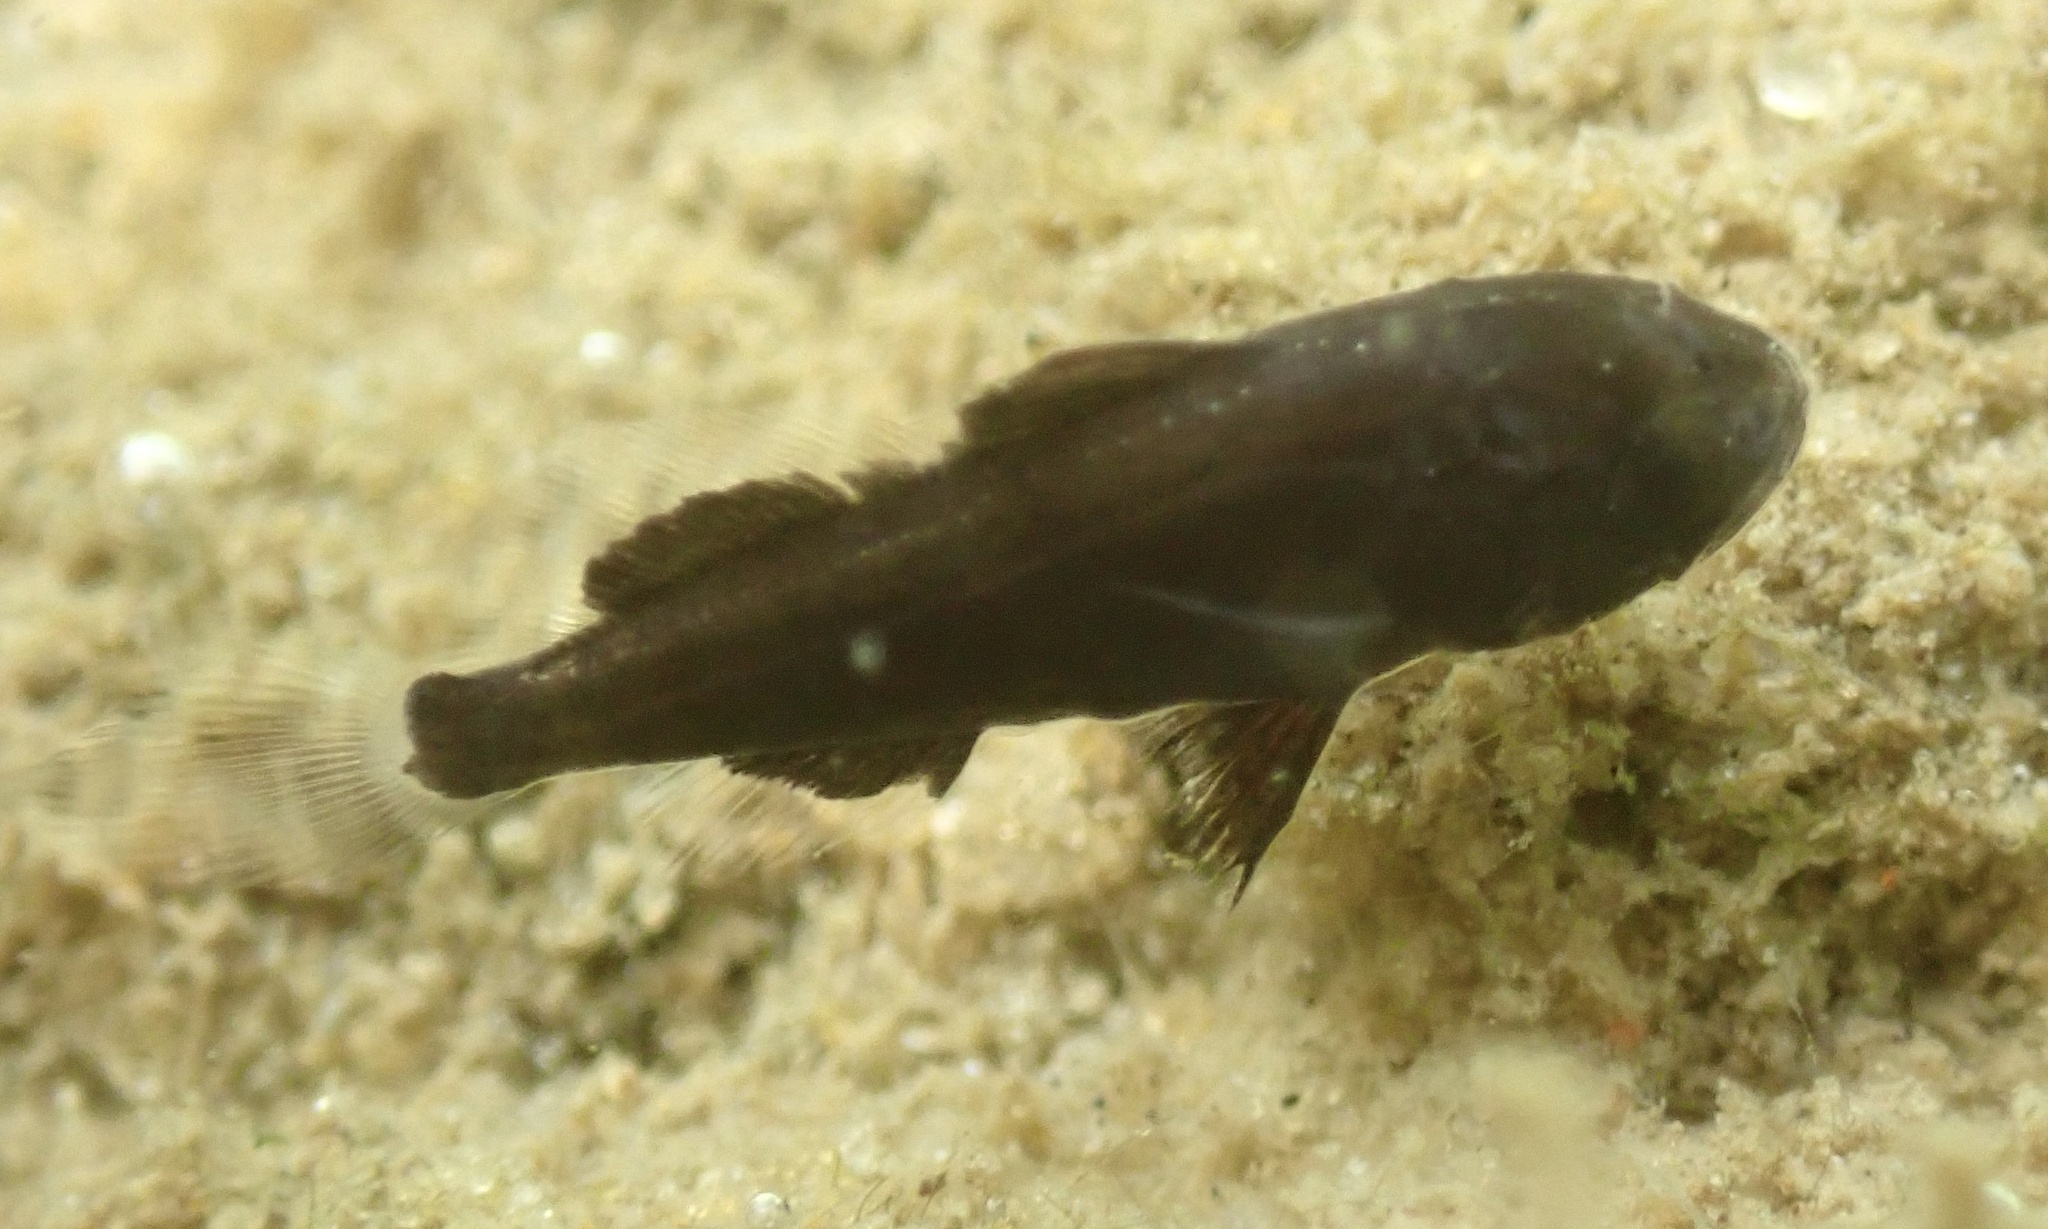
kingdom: Animalia
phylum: Chordata
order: Perciformes
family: Sciaenidae
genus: Menticirrhus
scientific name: Menticirrhus saxatilis
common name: Kingfish
